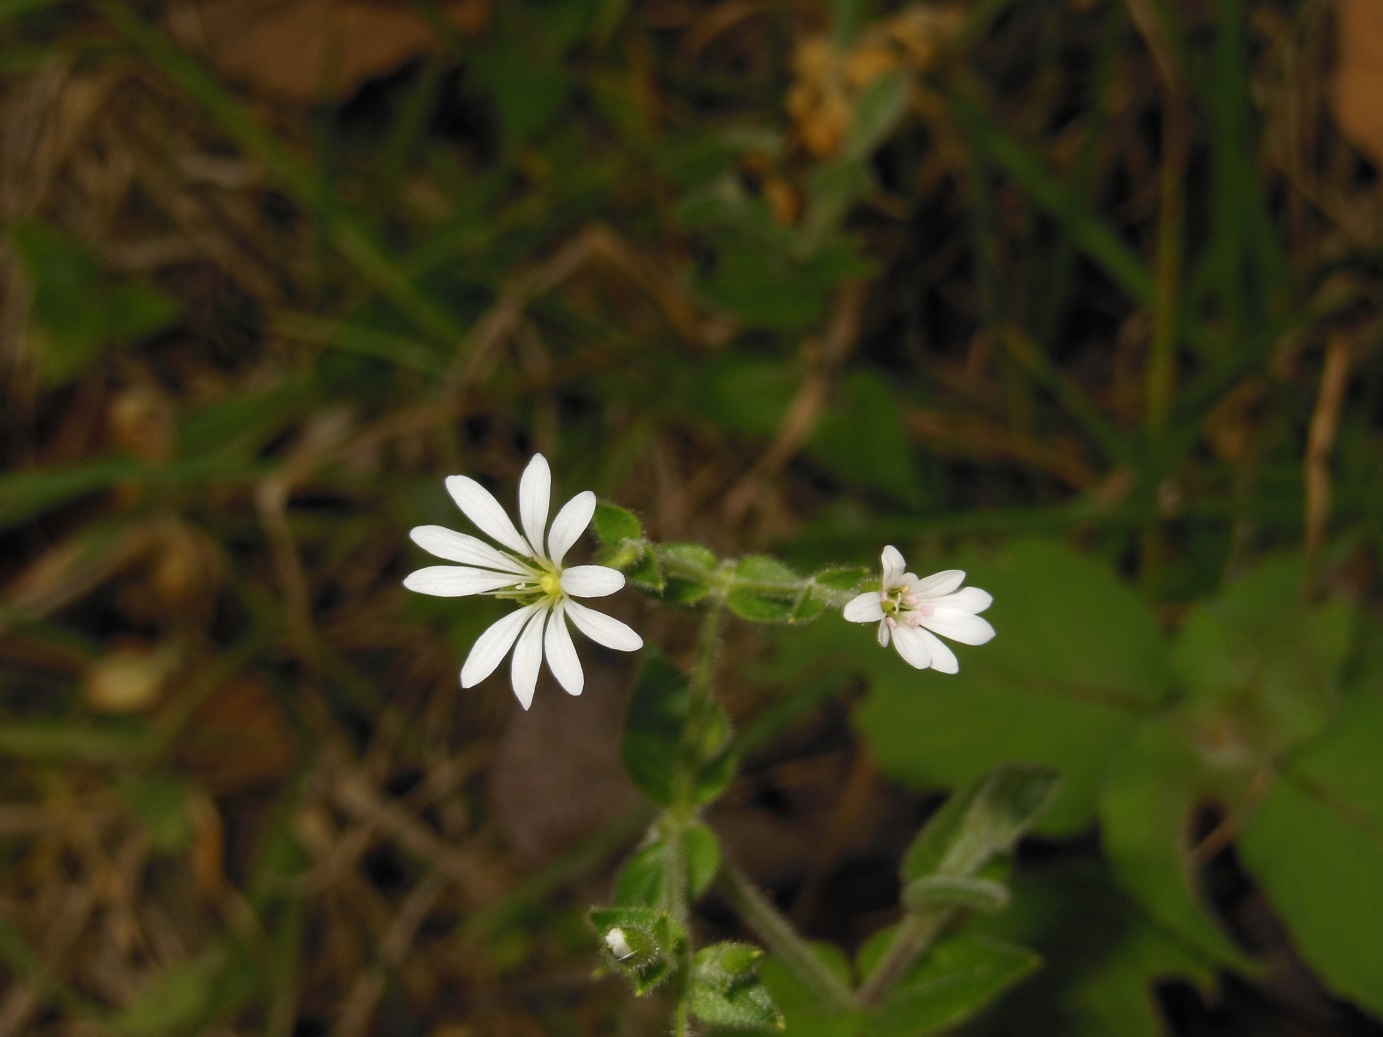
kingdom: Plantae
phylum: Tracheophyta
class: Magnoliopsida
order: Caryophyllales
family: Caryophyllaceae
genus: Stellaria
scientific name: Stellaria nemorum
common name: Wood stitchwort
